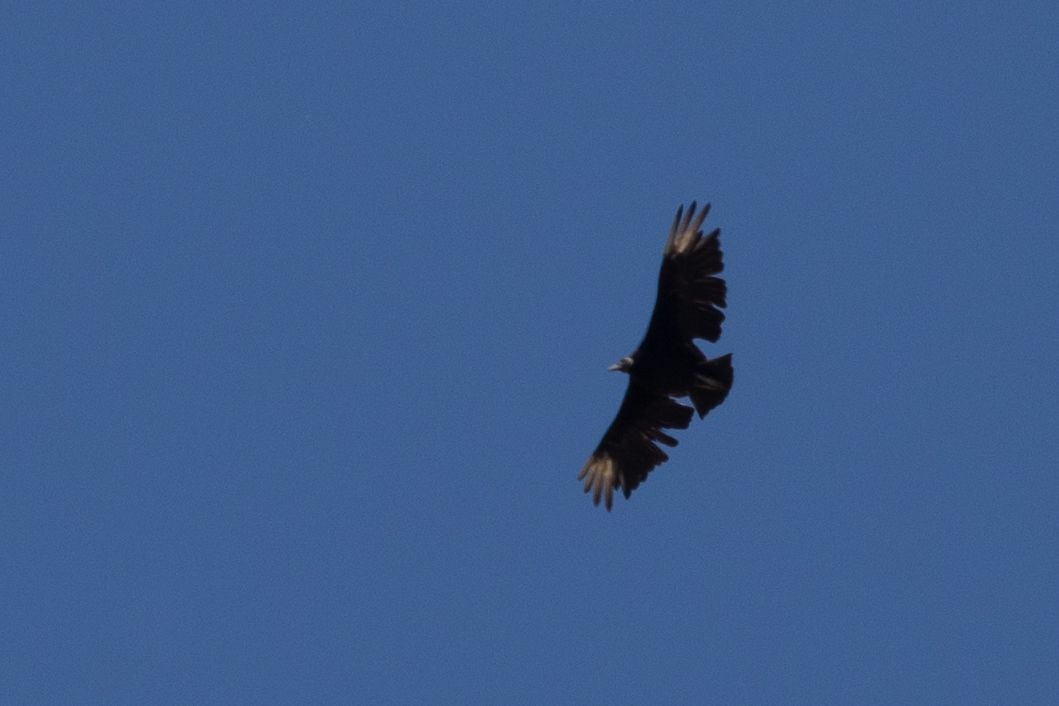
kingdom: Animalia
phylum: Chordata
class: Aves
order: Accipitriformes
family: Cathartidae
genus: Coragyps
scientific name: Coragyps atratus
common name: Black vulture
